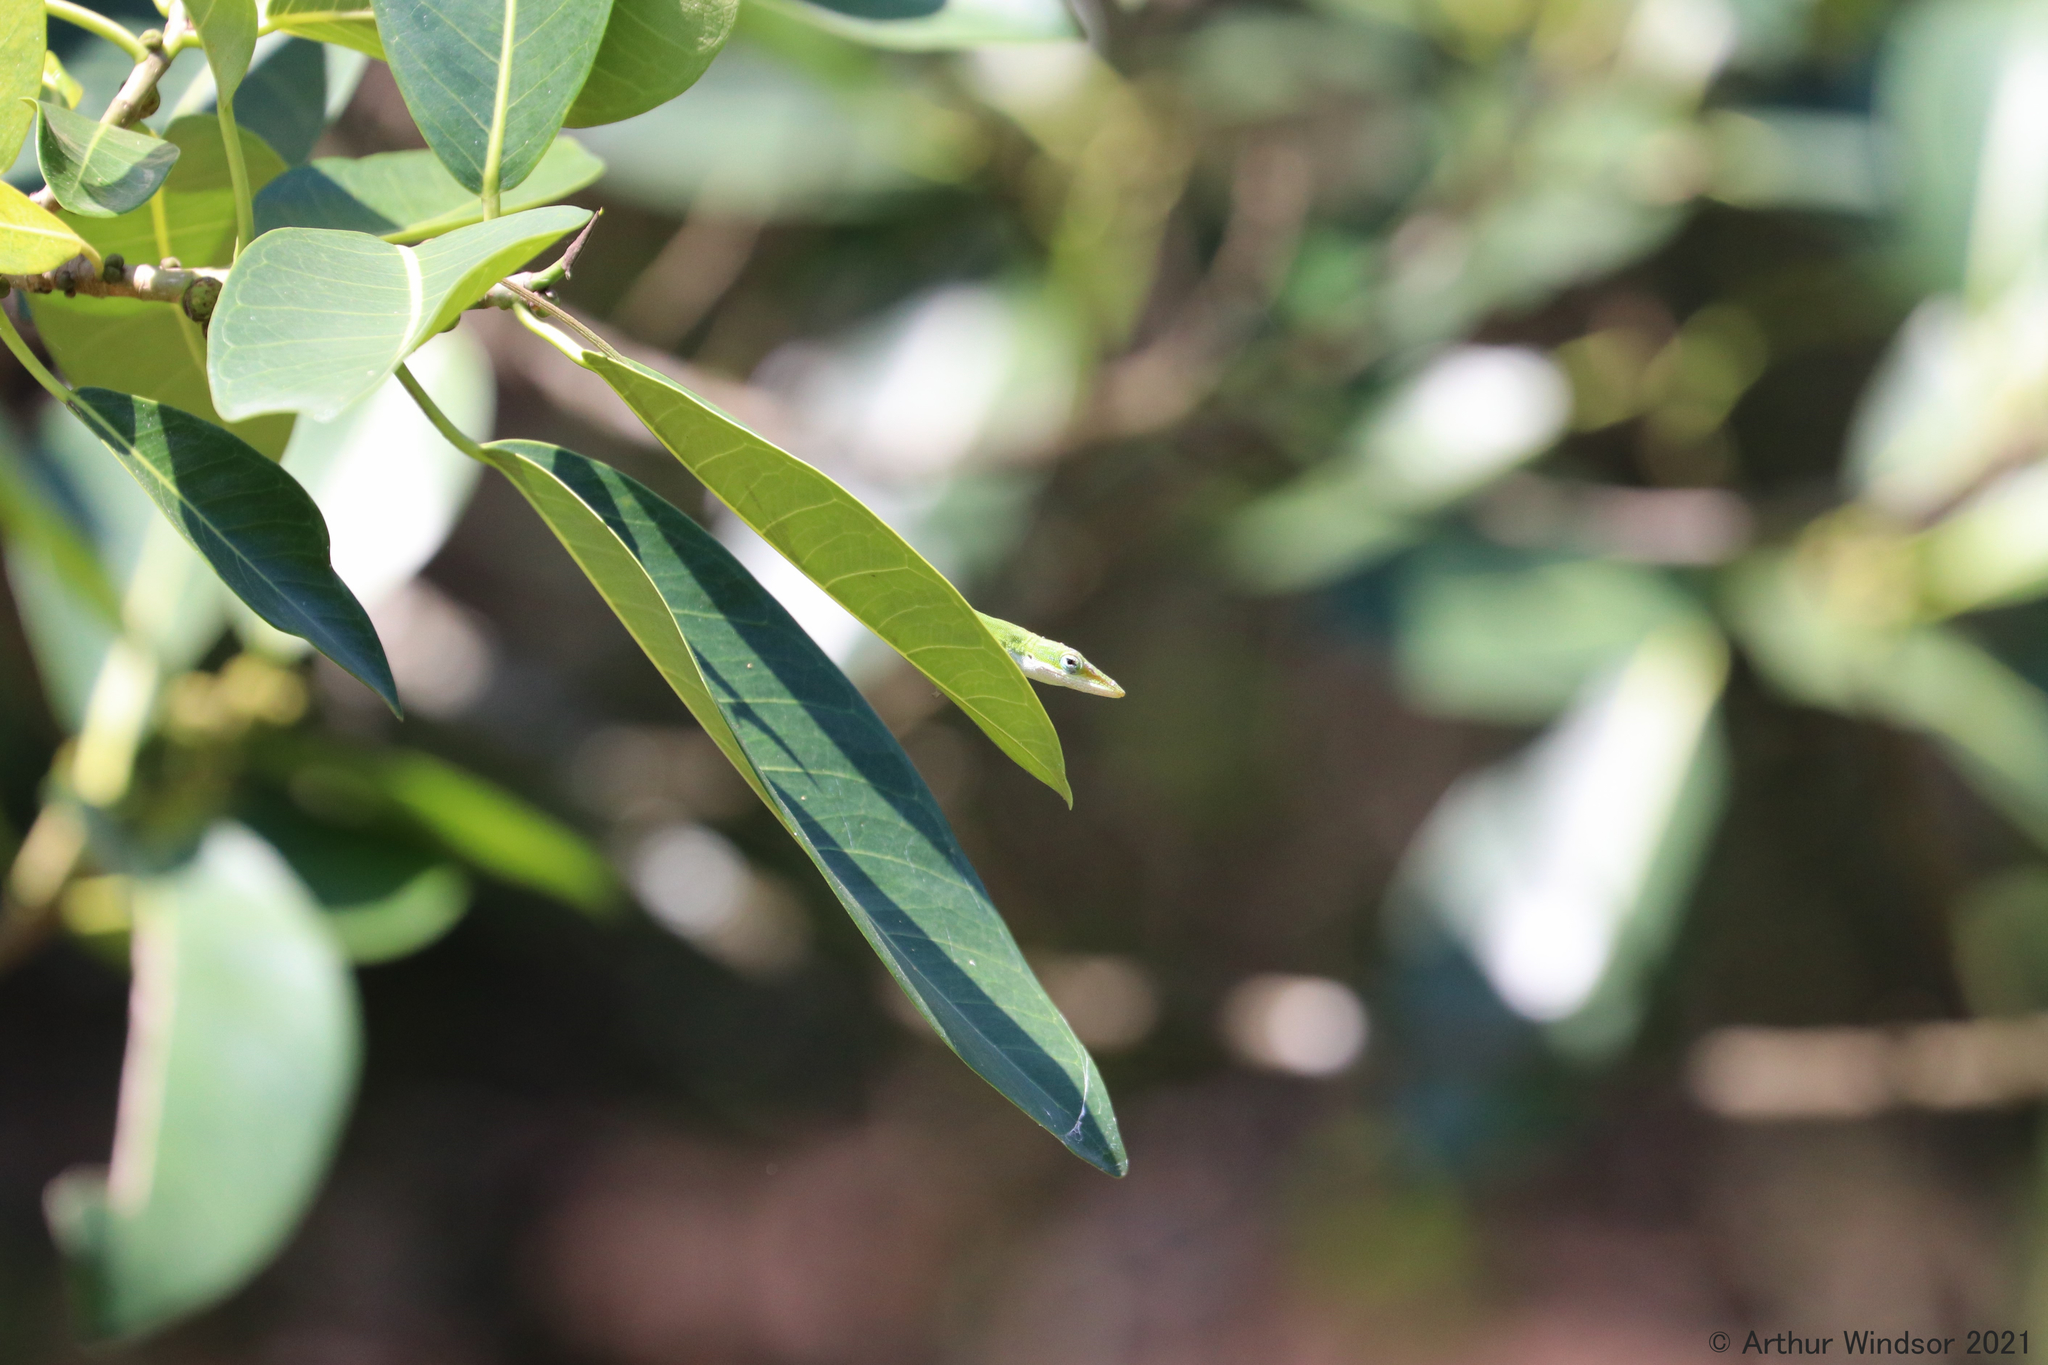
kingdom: Animalia
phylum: Chordata
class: Squamata
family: Dactyloidae
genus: Anolis
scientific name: Anolis carolinensis
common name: Green anole
